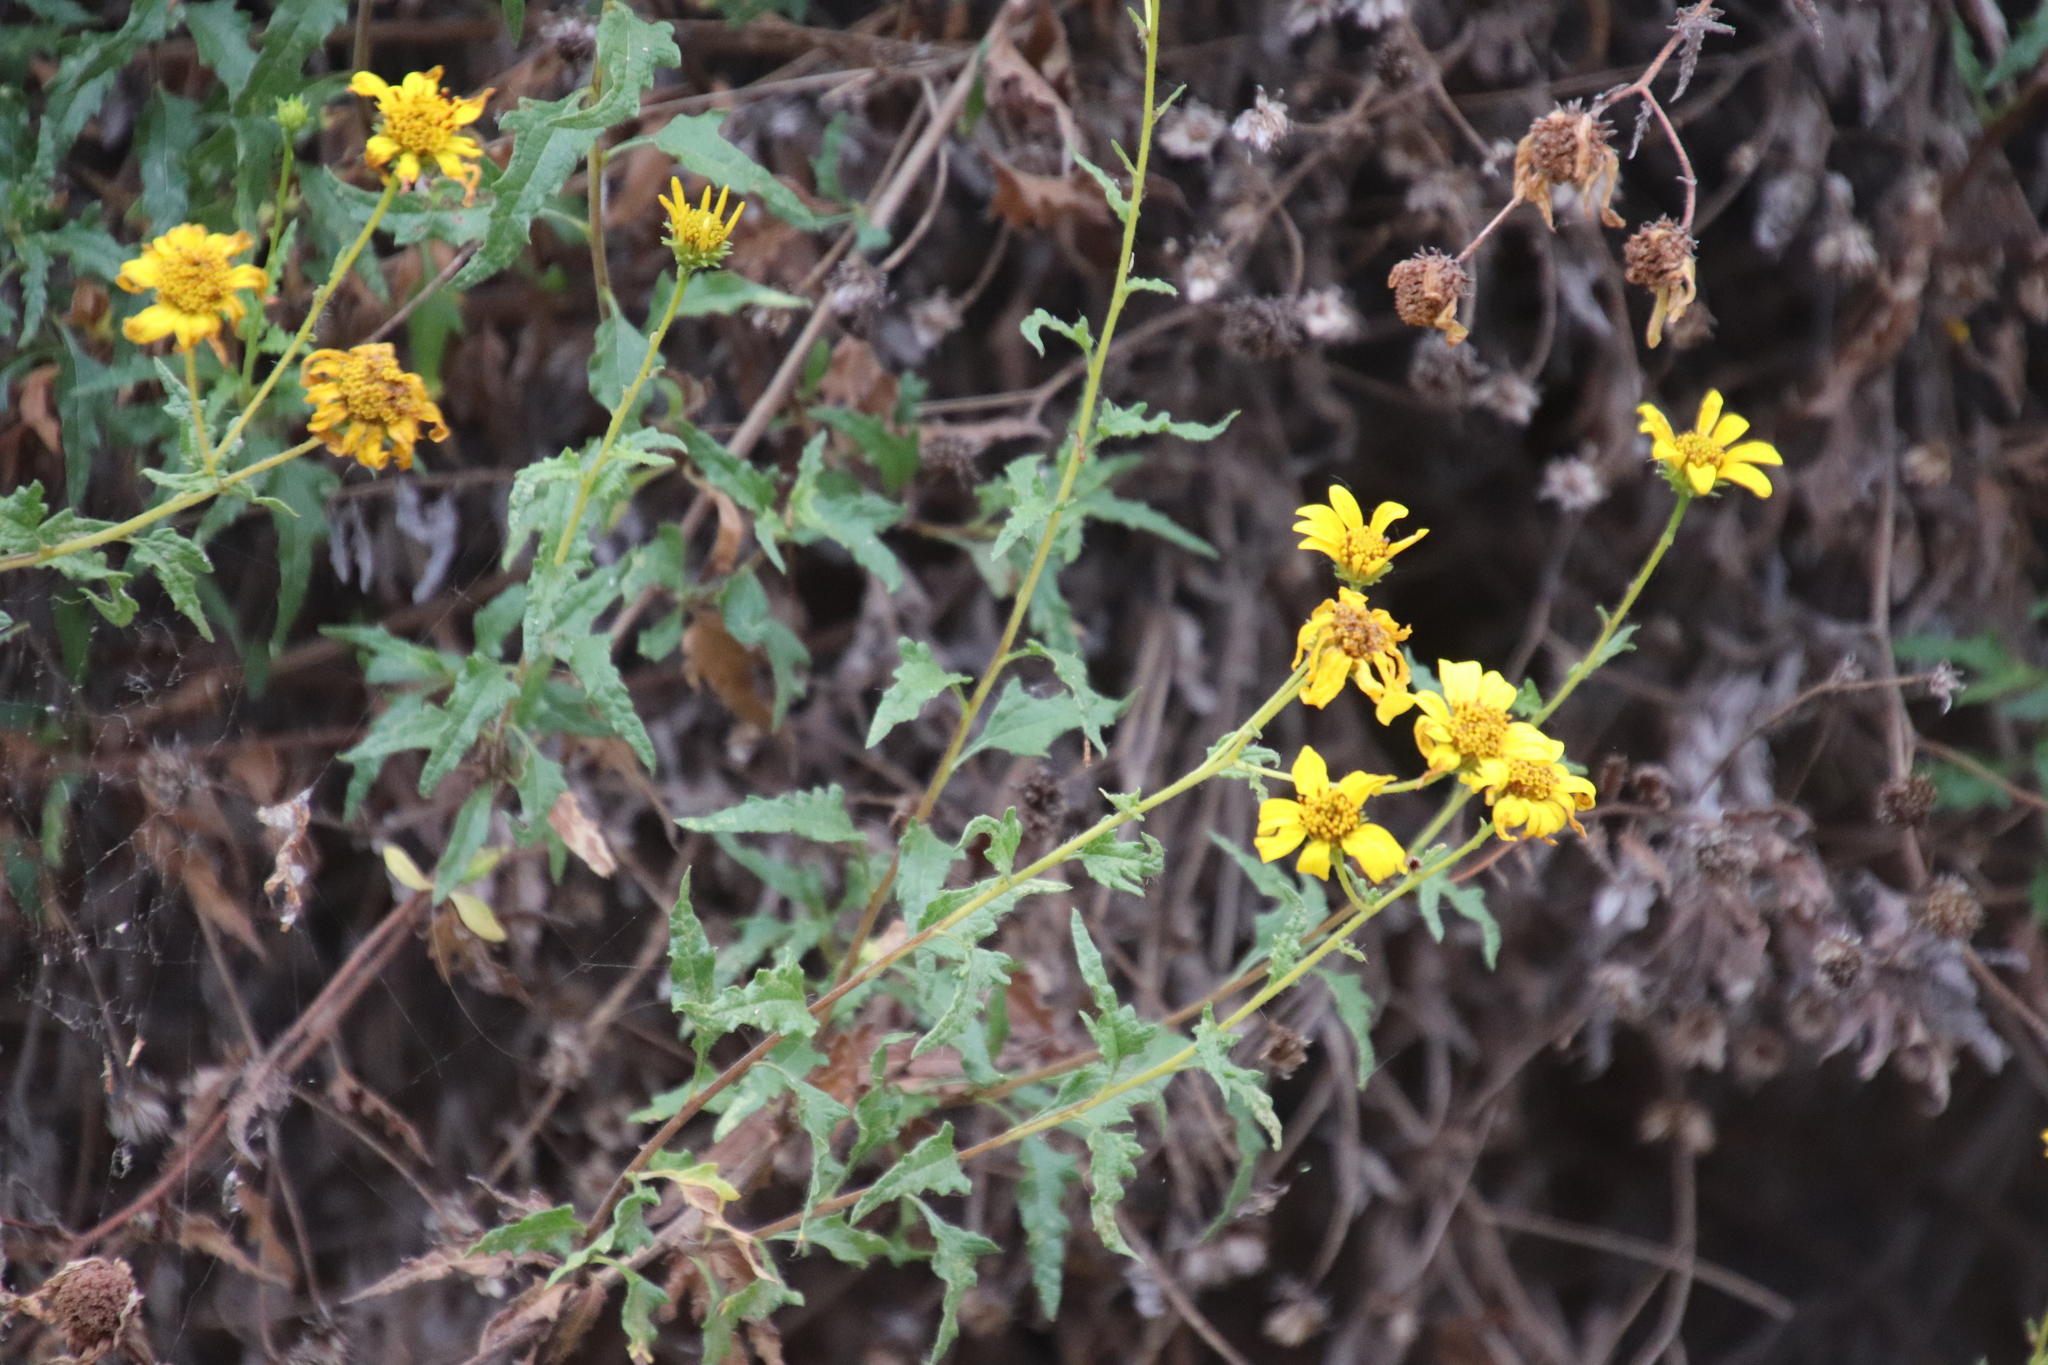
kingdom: Plantae
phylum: Tracheophyta
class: Magnoliopsida
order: Asterales
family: Asteraceae
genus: Bahiopsis
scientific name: Bahiopsis laciniata
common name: San diego county viguiera
